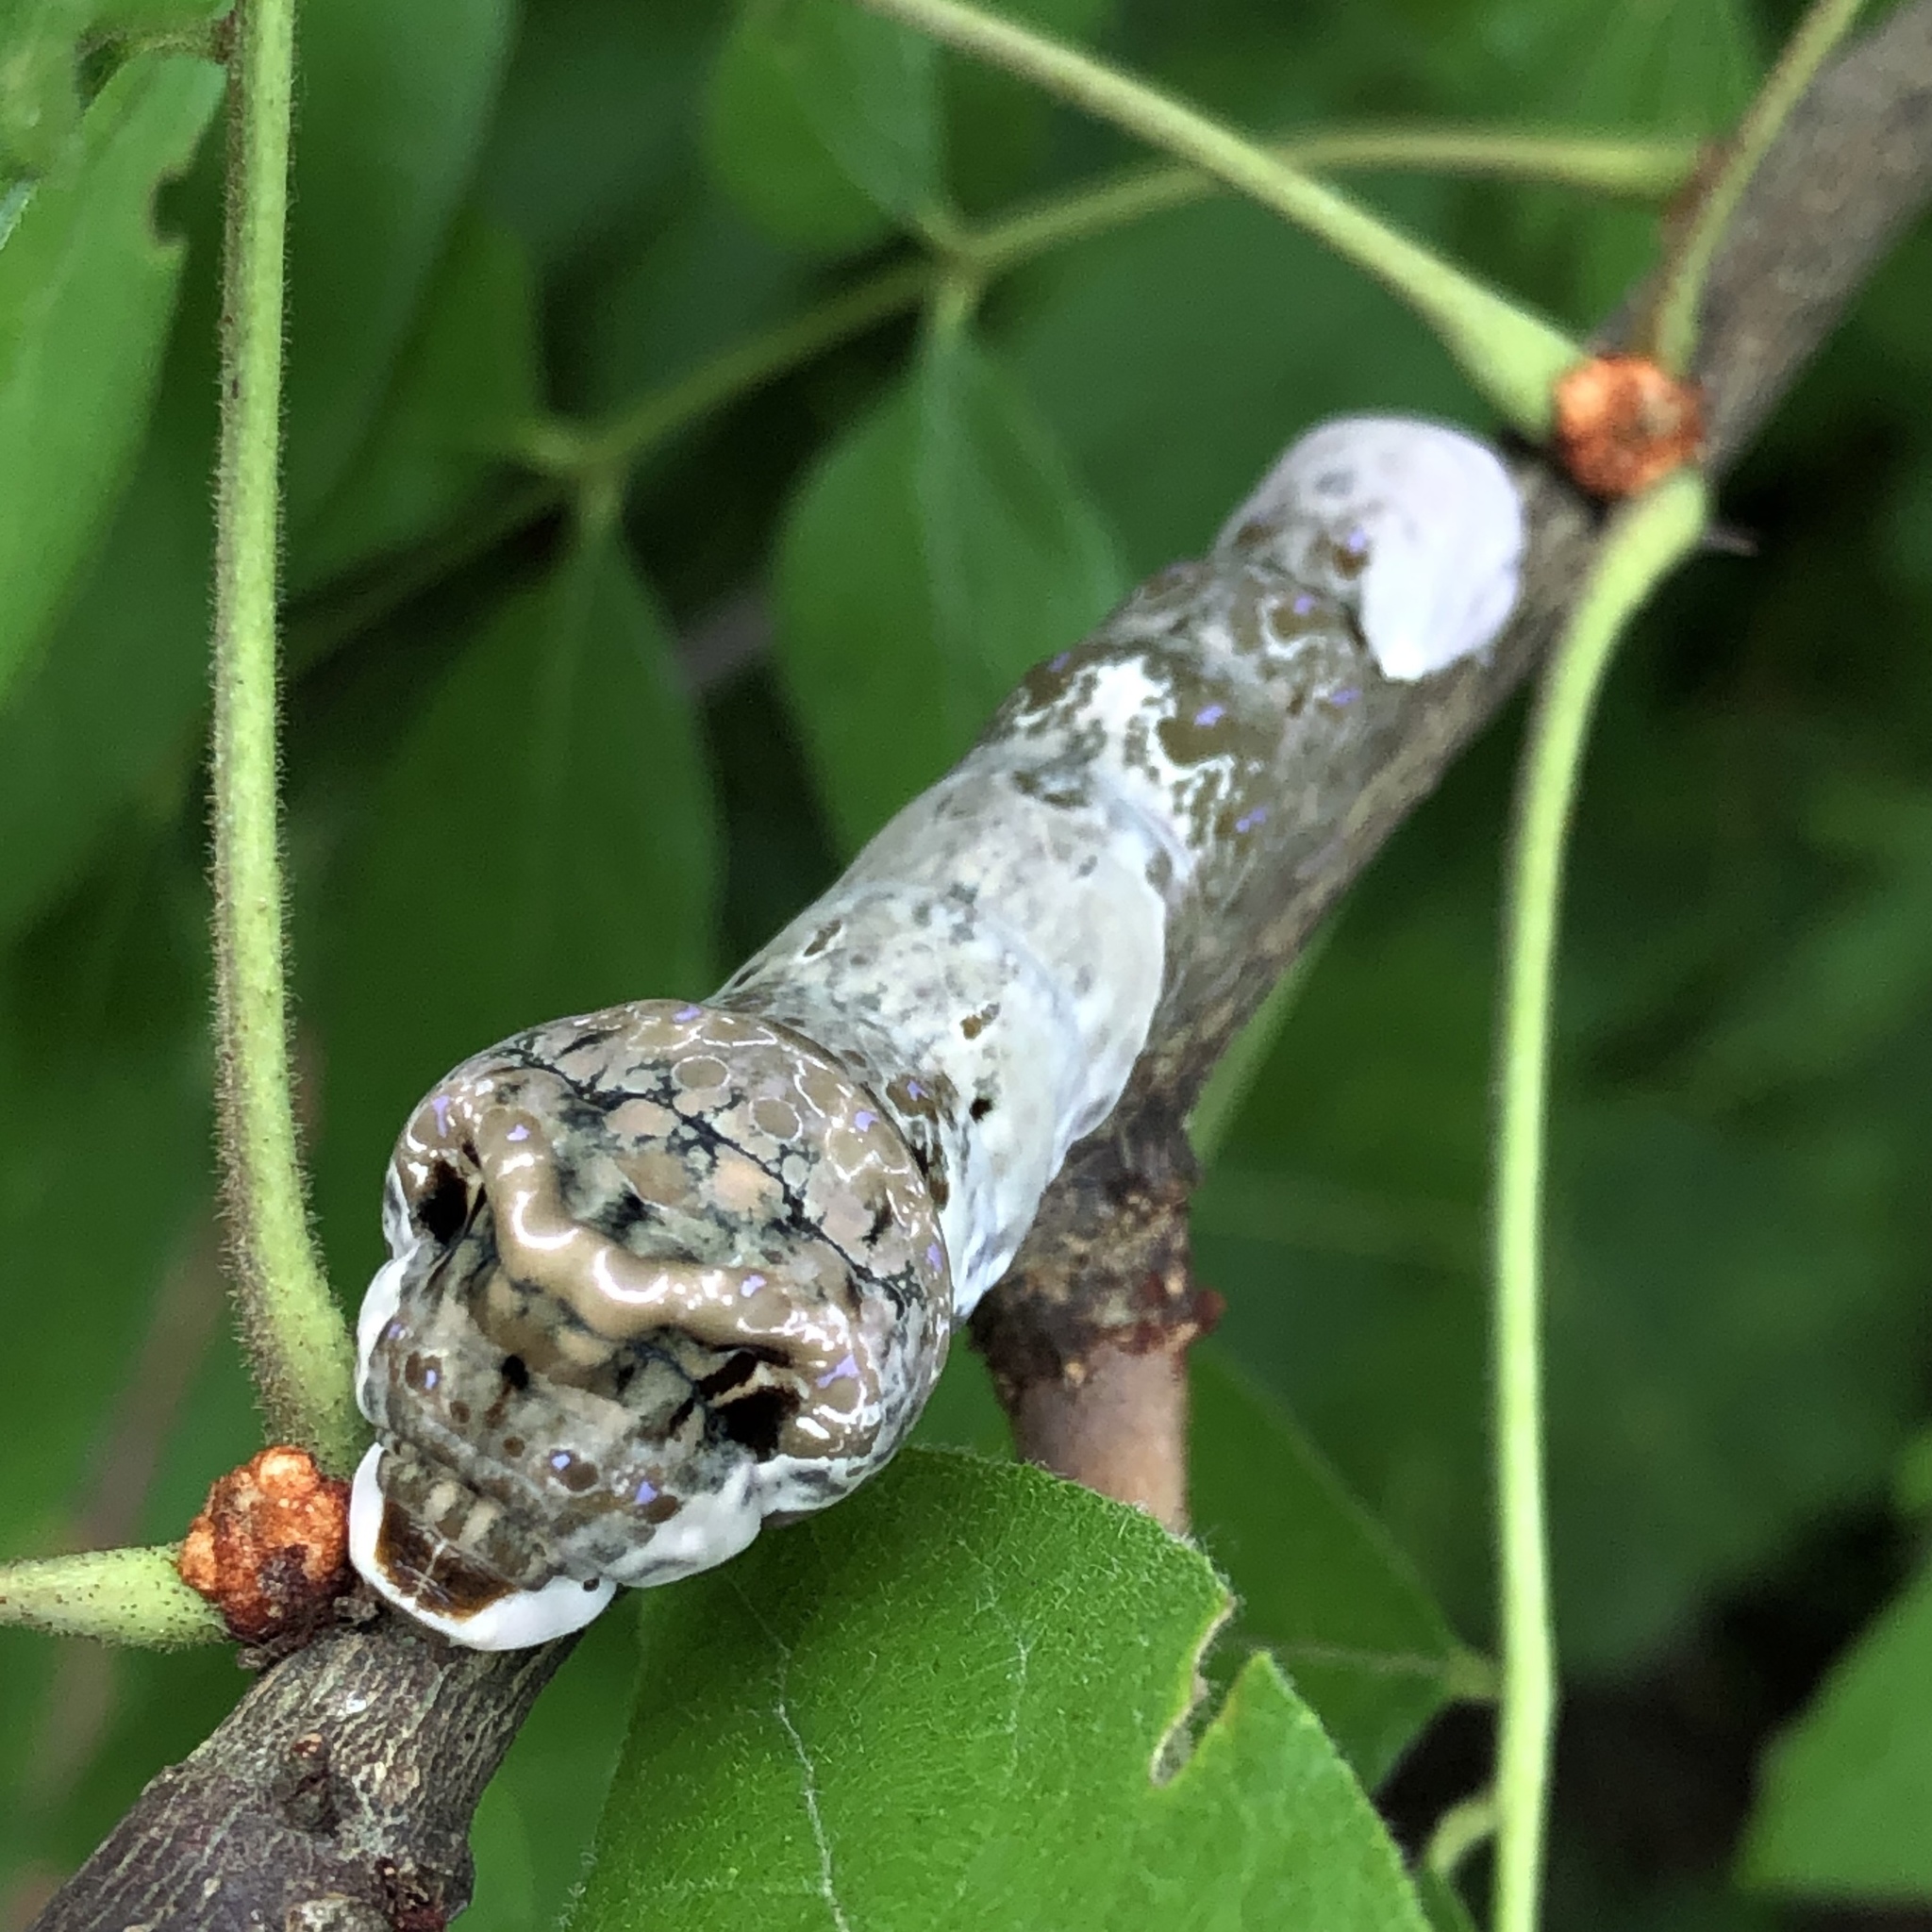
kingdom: Animalia
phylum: Arthropoda
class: Insecta
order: Lepidoptera
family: Papilionidae
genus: Papilio
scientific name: Papilio cresphontes
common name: Giant swallowtail
